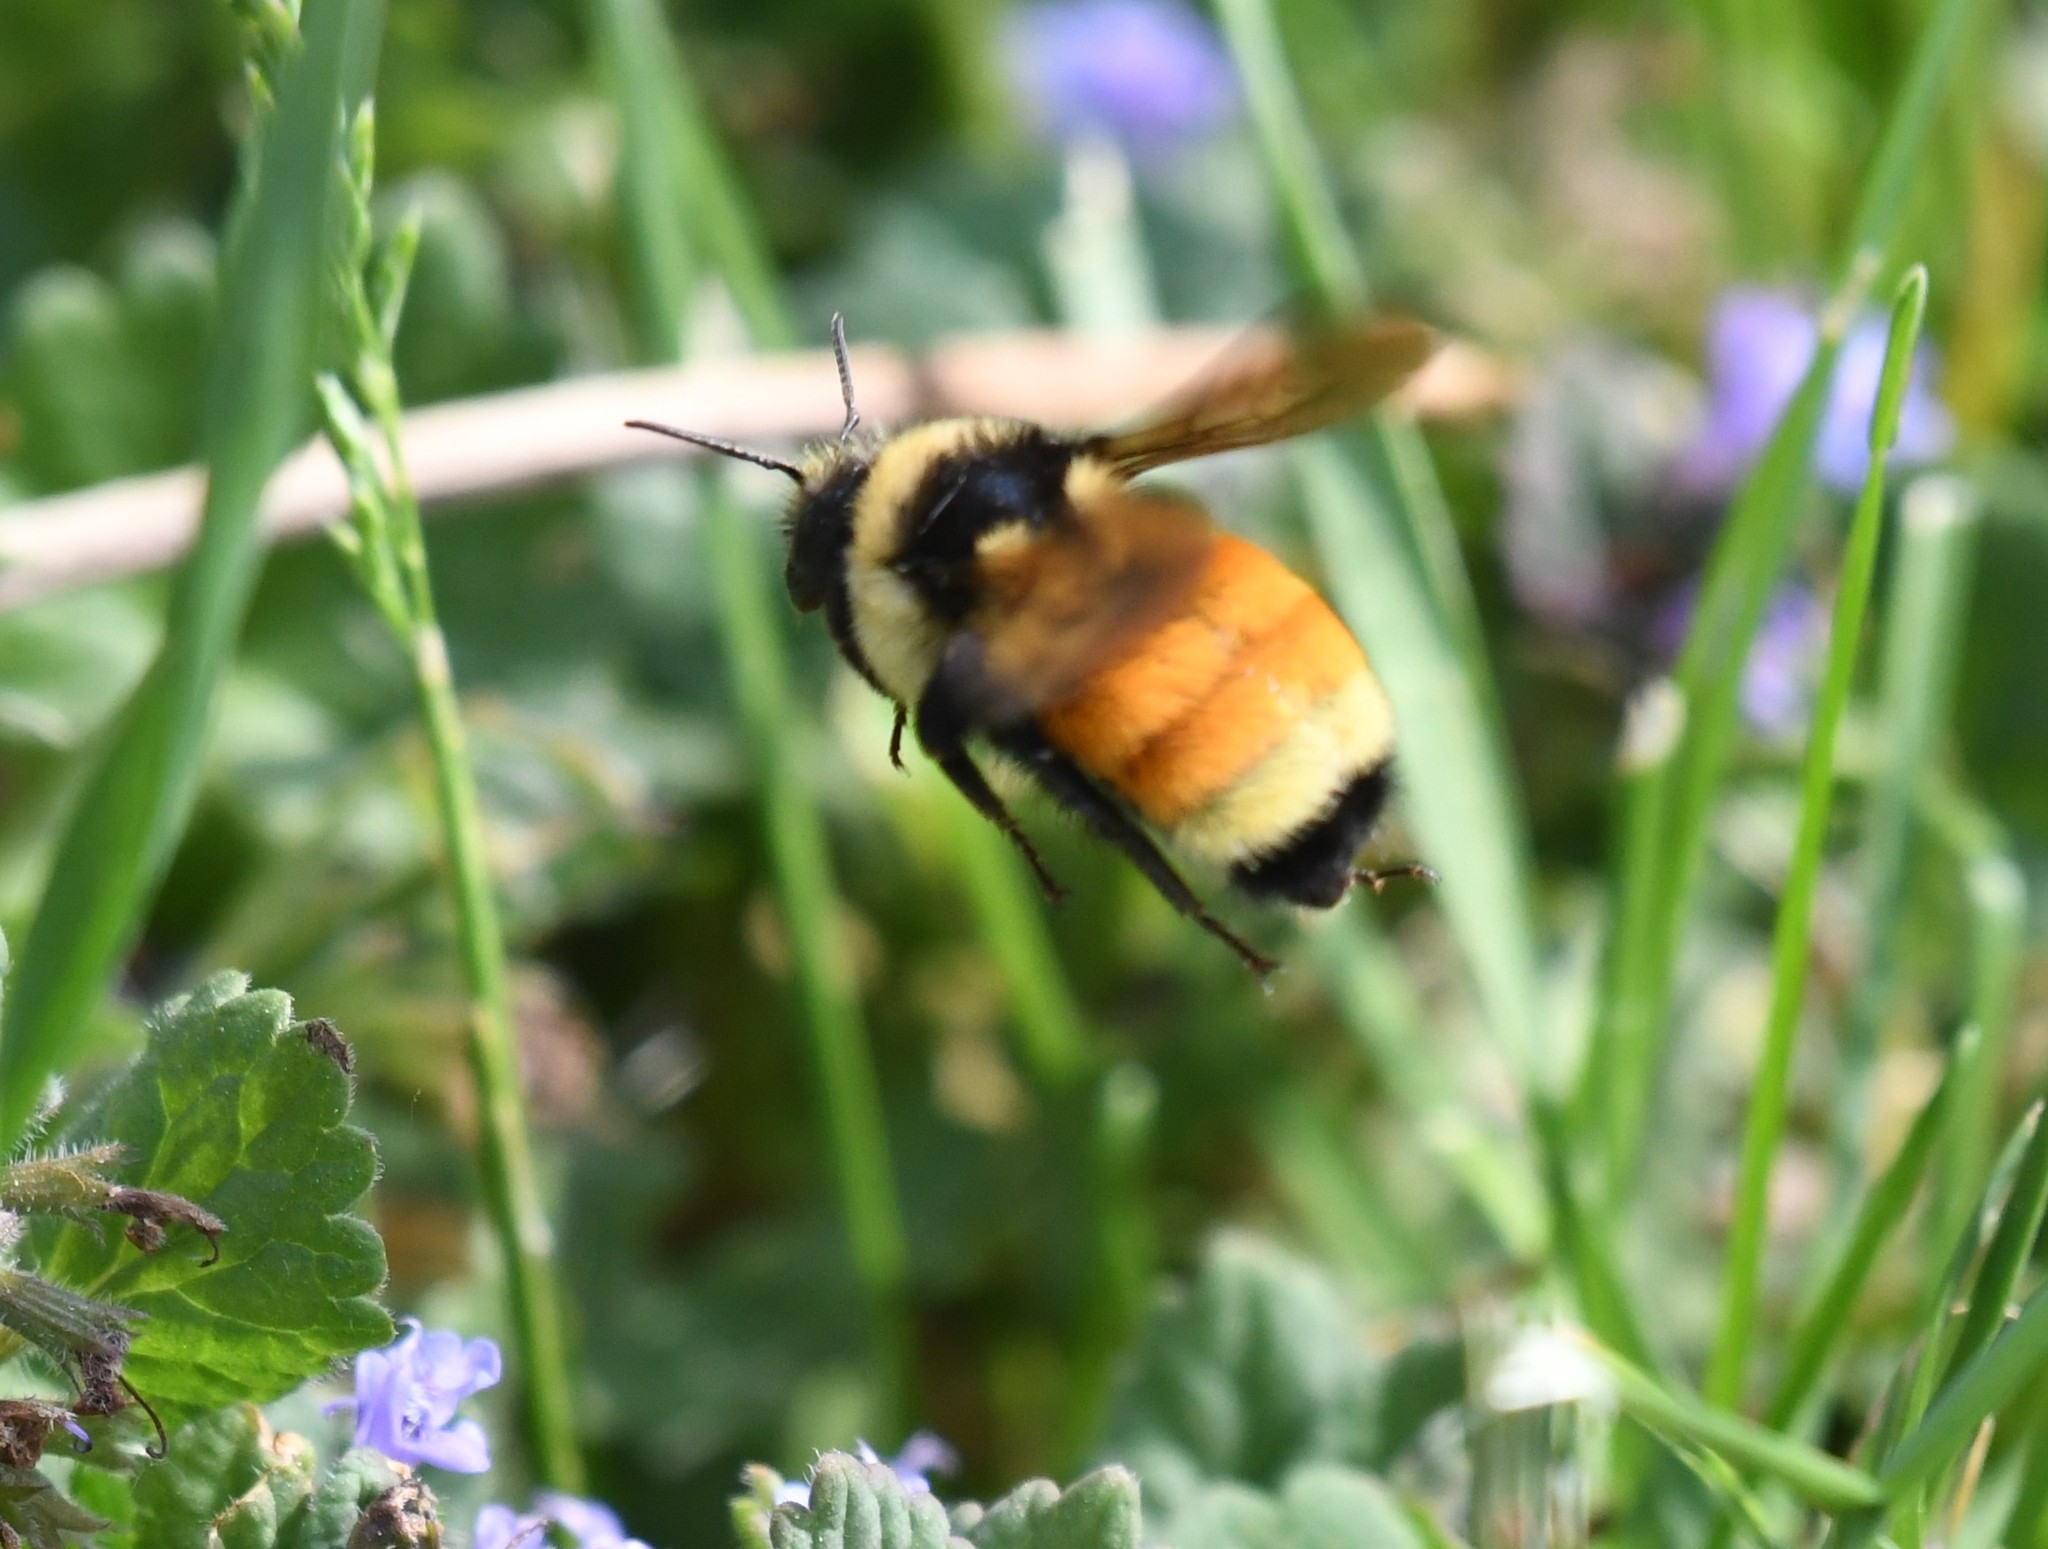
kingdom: Animalia
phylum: Arthropoda
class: Insecta
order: Hymenoptera
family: Apidae
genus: Bombus
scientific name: Bombus ternarius
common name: Tri-colored bumble bee
